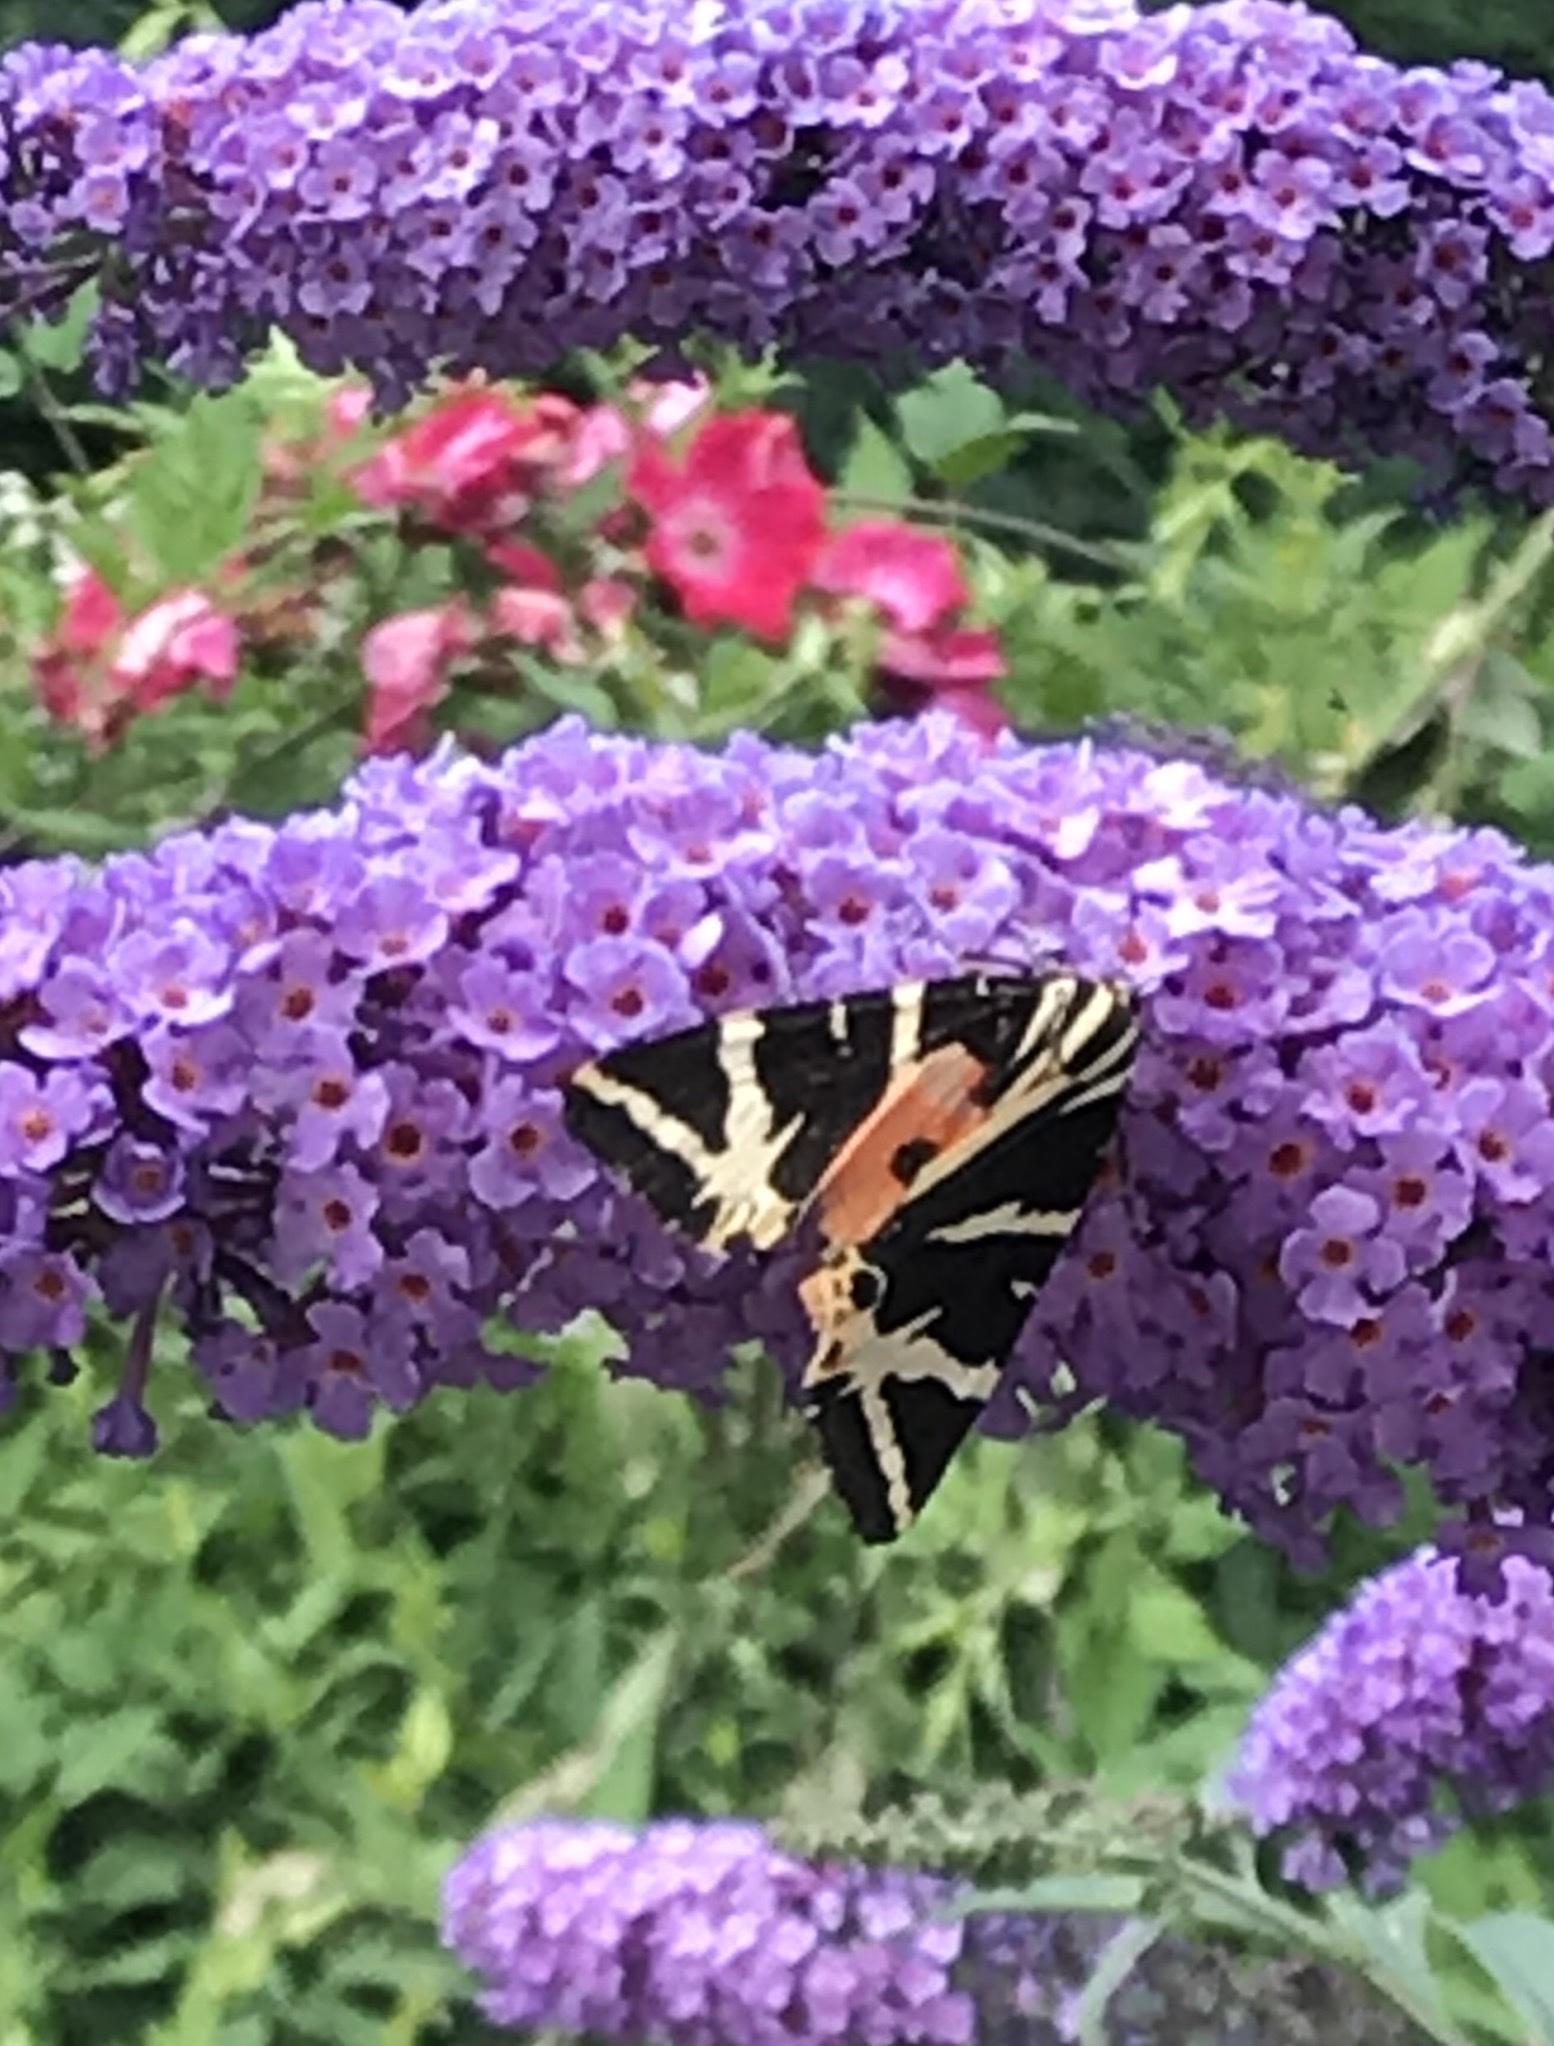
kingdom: Animalia
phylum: Arthropoda
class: Insecta
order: Lepidoptera
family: Erebidae
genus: Euplagia
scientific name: Euplagia quadripunctaria
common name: Jersey tiger
